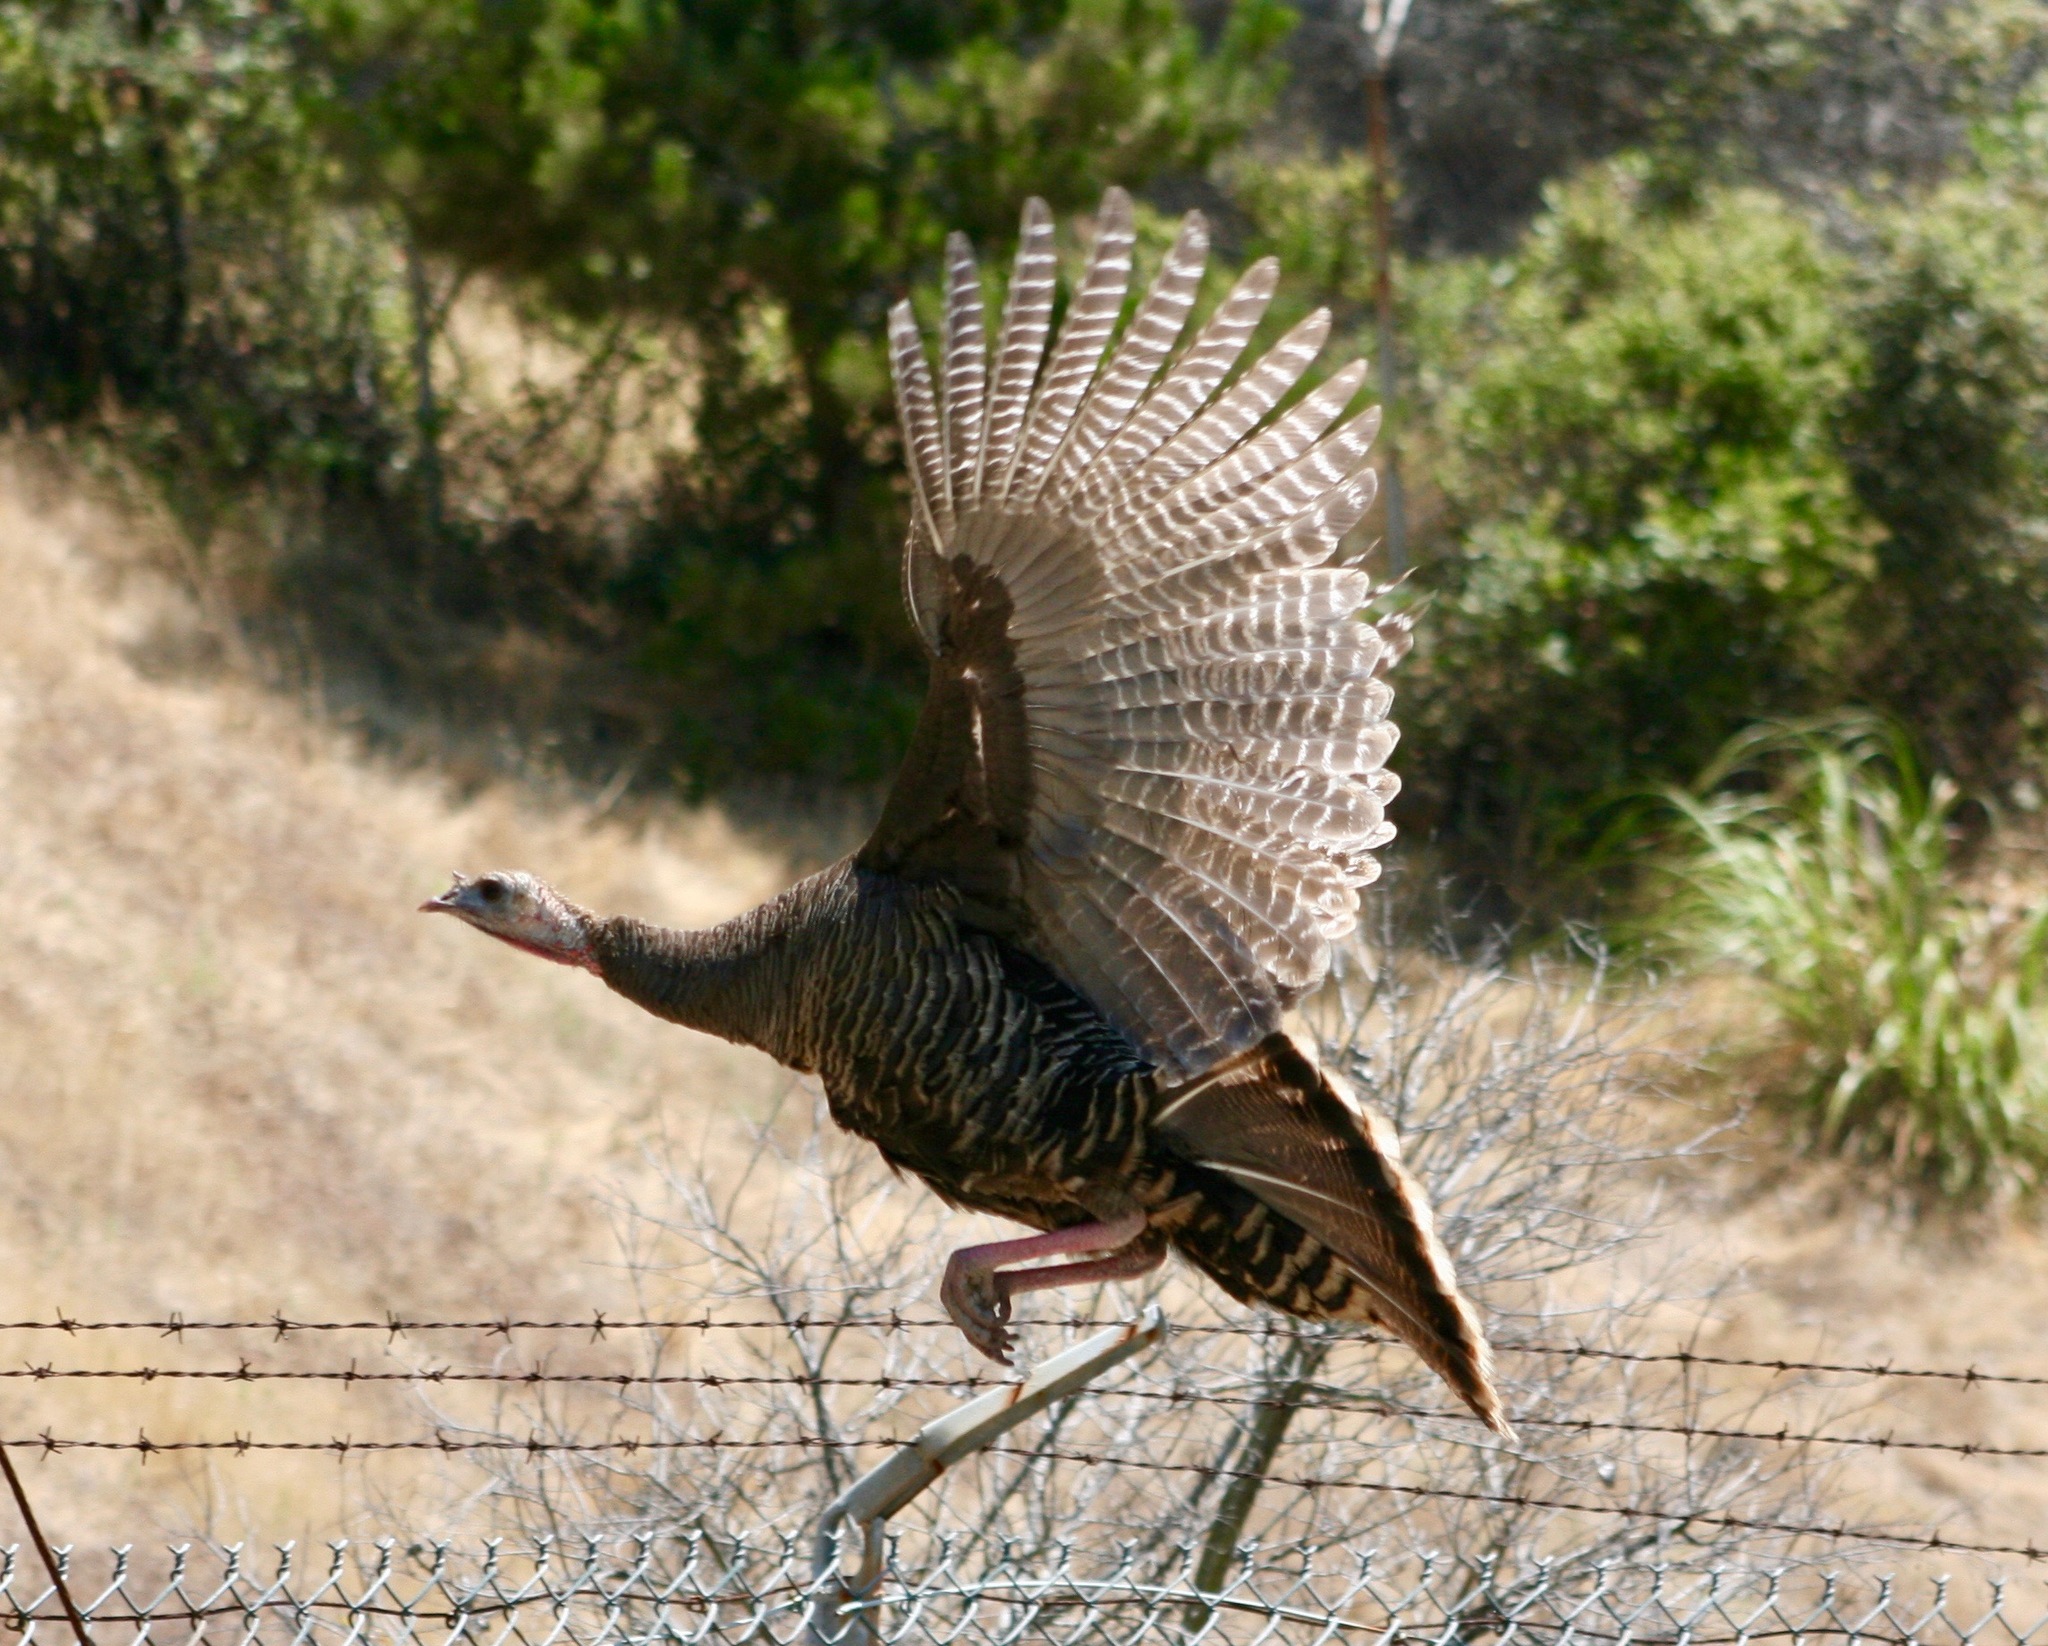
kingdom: Animalia
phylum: Chordata
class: Aves
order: Galliformes
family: Phasianidae
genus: Meleagris
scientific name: Meleagris gallopavo
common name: Wild turkey
